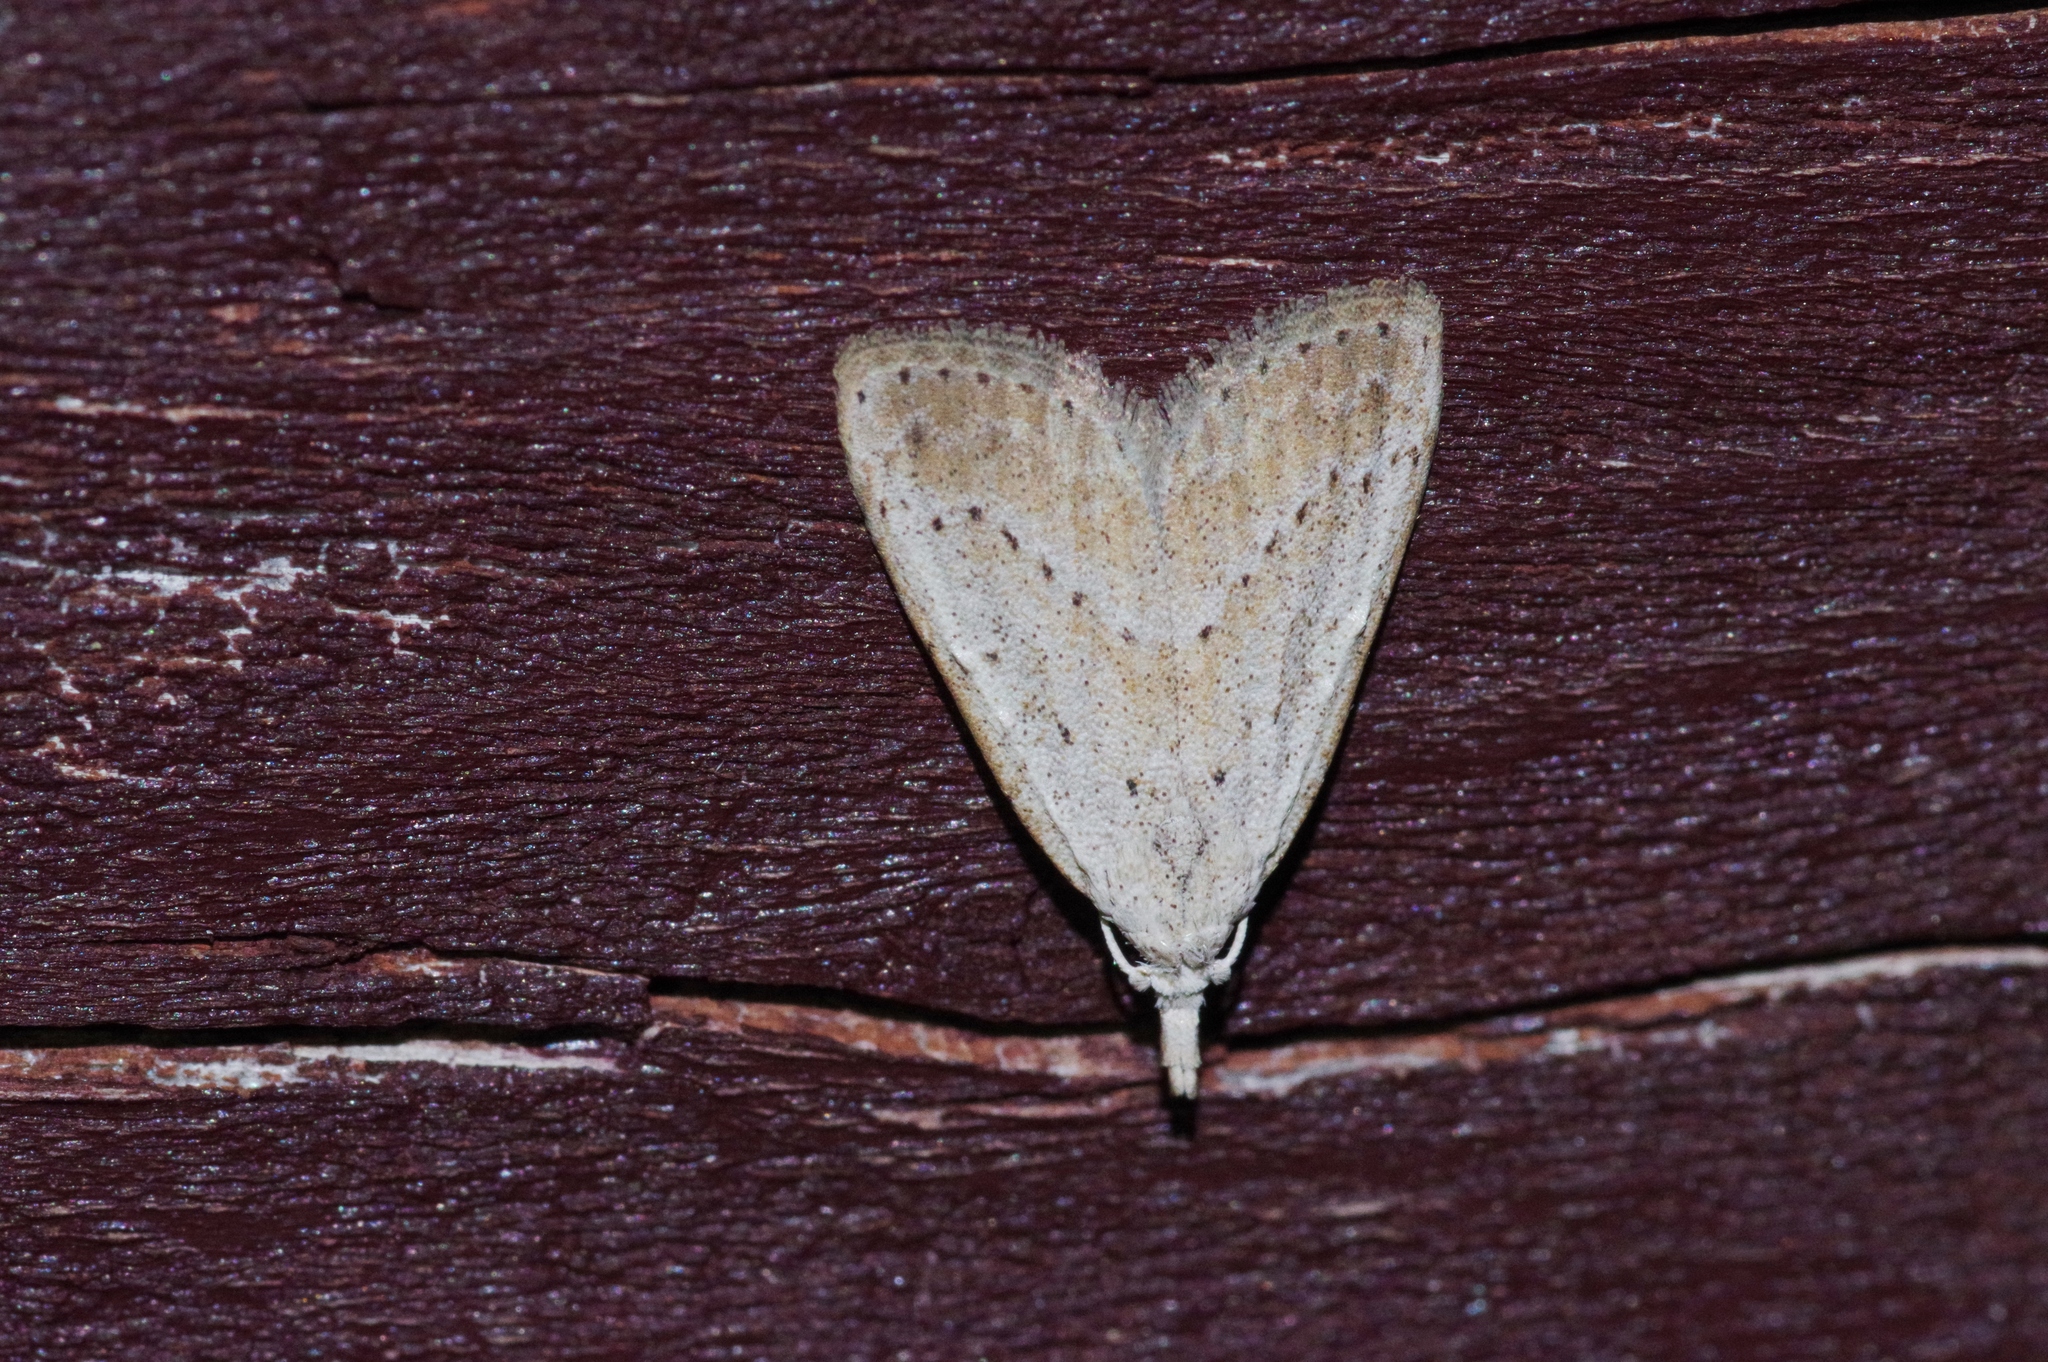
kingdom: Animalia
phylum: Arthropoda
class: Insecta
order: Lepidoptera
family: Nolidae
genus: Meganola
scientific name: Meganola brunellus
